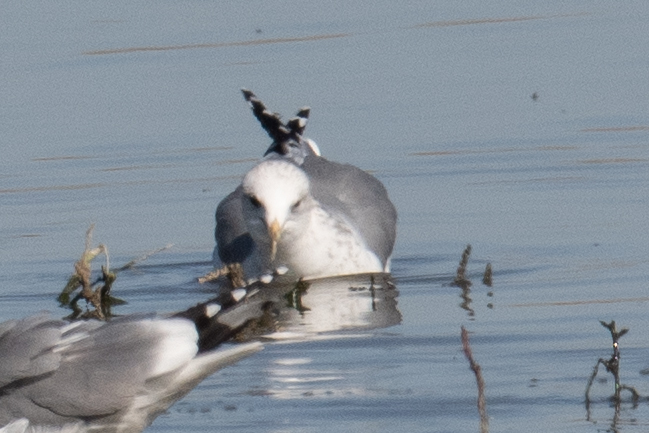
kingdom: Animalia
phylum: Chordata
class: Aves
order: Charadriiformes
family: Laridae
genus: Larus
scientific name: Larus californicus
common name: California gull
